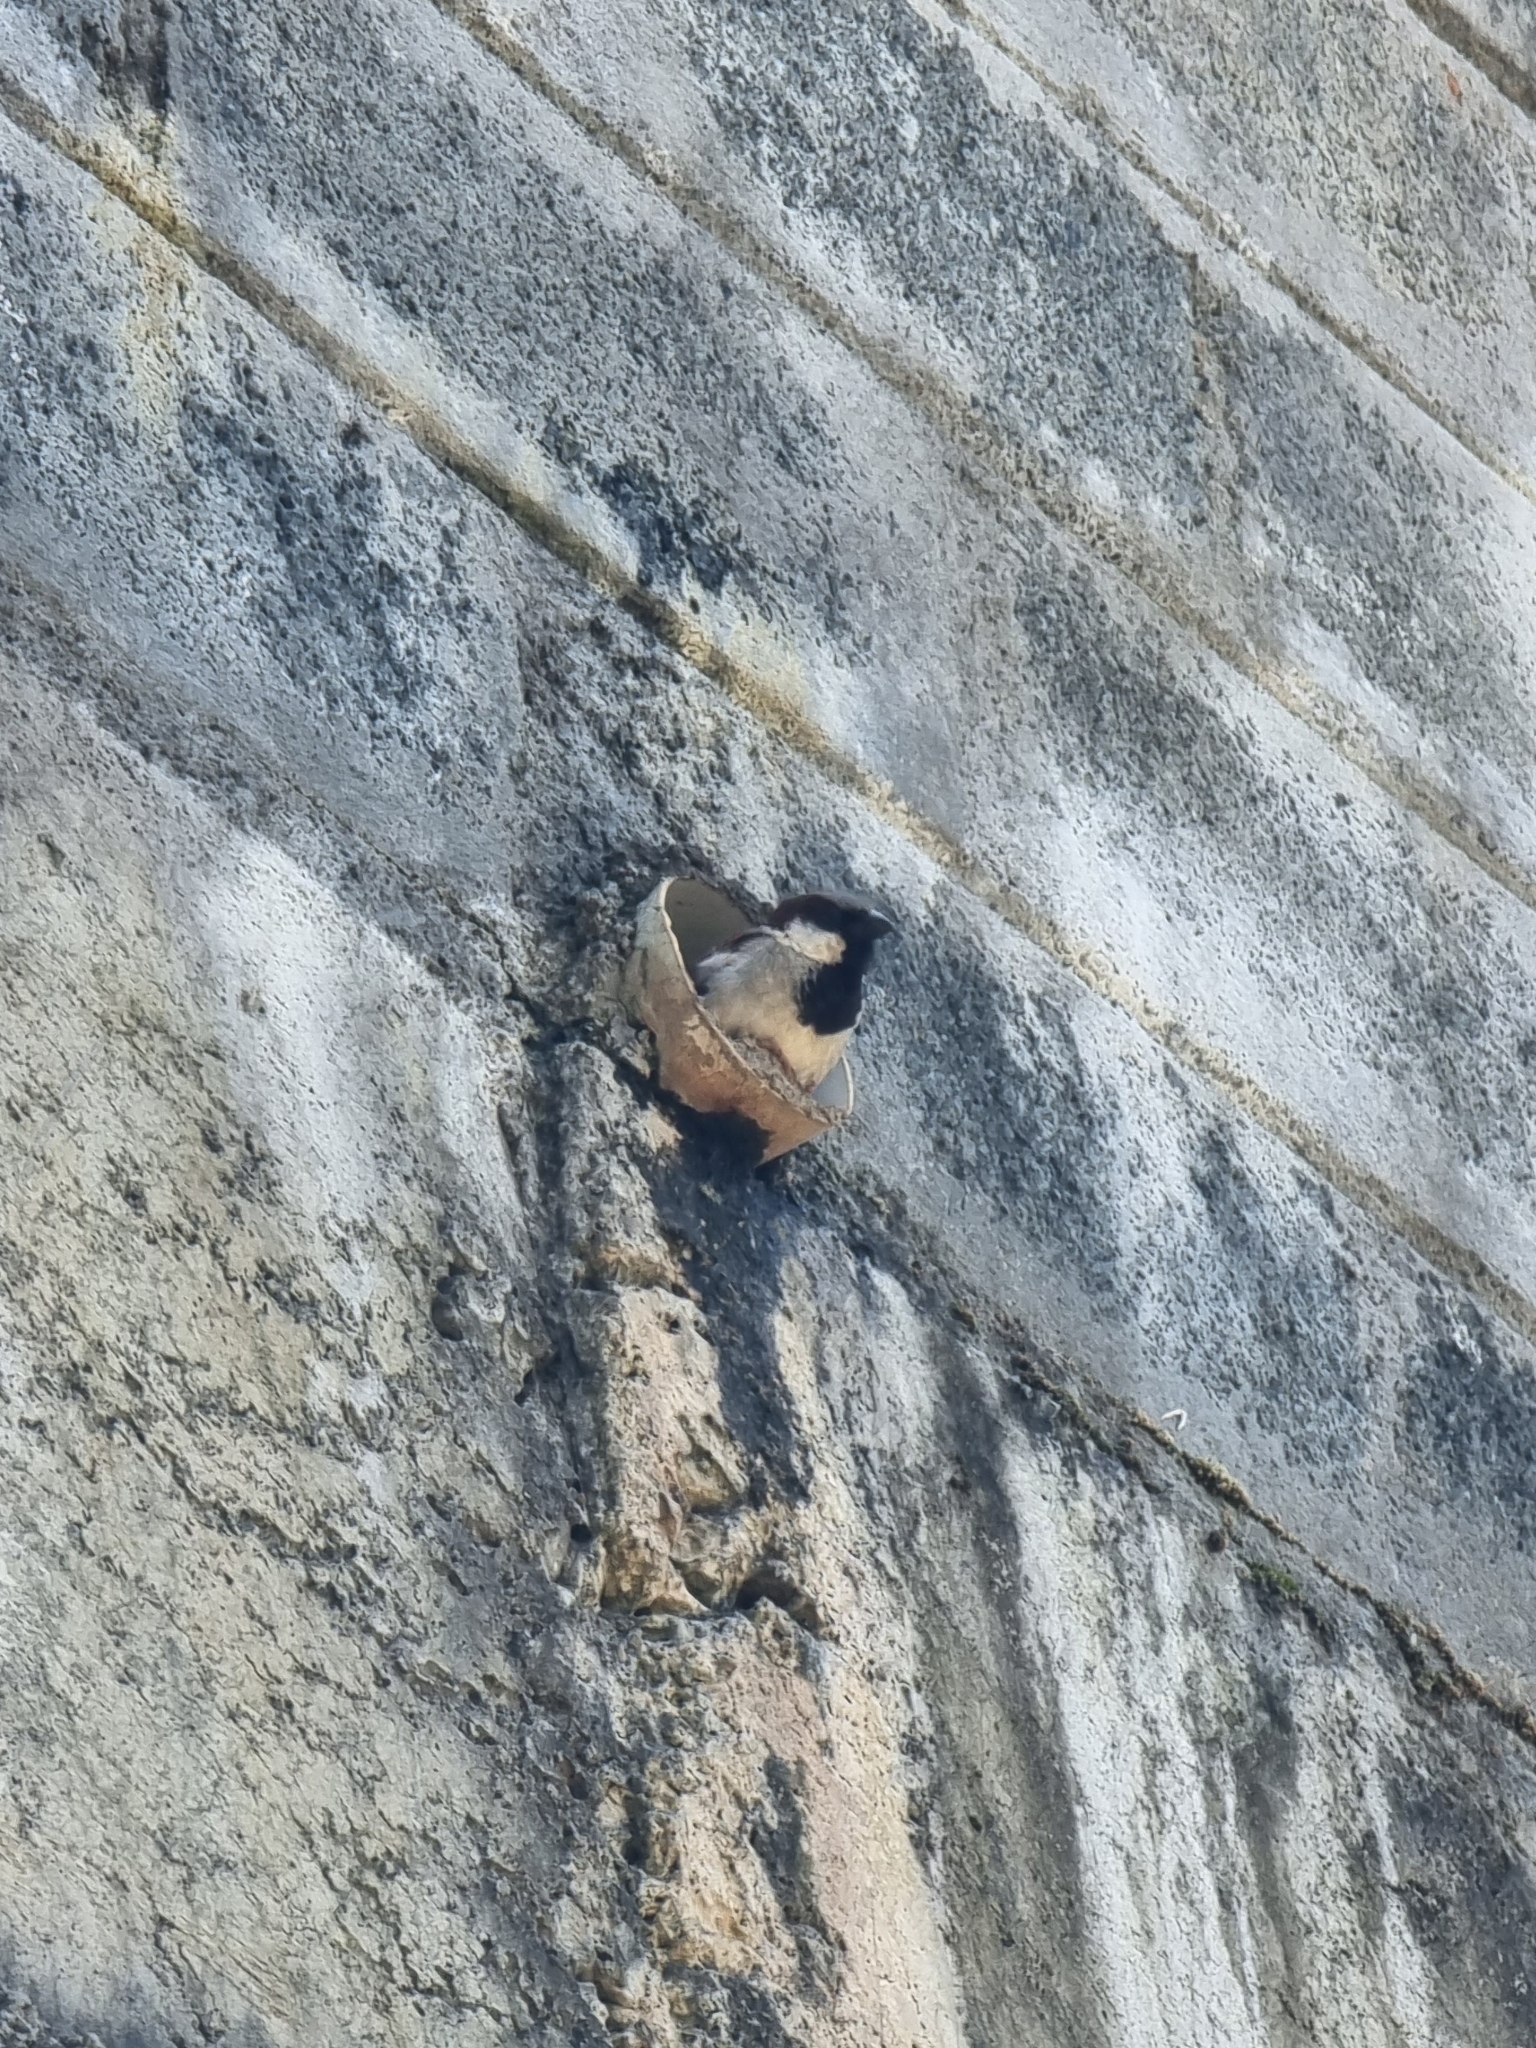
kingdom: Animalia
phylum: Chordata
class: Aves
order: Passeriformes
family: Passeridae
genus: Passer
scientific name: Passer domesticus
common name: House sparrow
